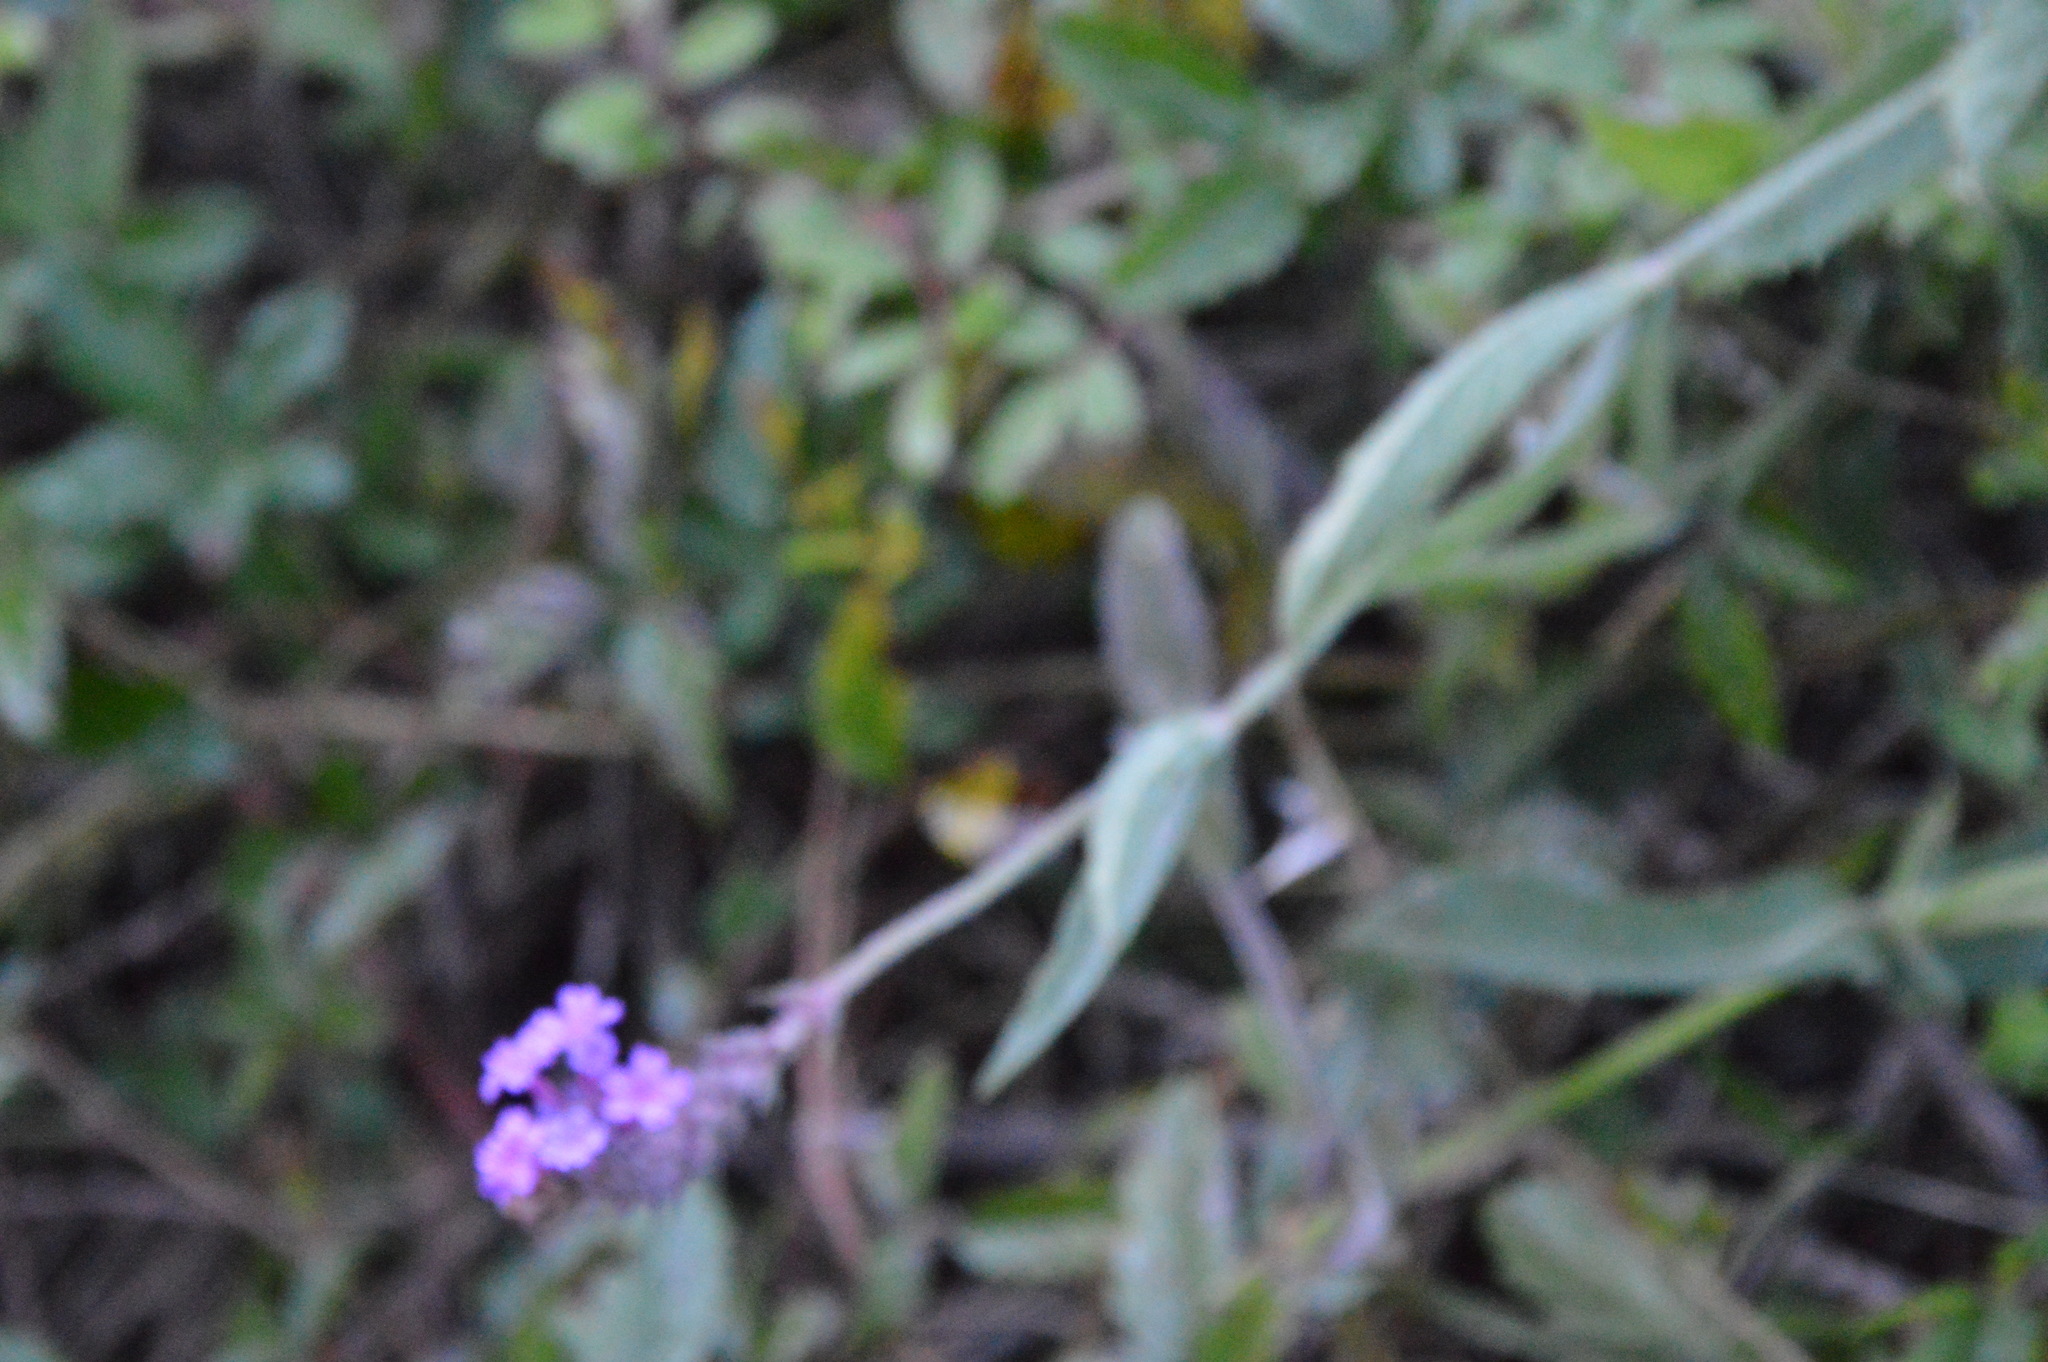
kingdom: Plantae
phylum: Tracheophyta
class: Magnoliopsida
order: Lamiales
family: Verbenaceae
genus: Verbena
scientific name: Verbena rigida
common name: Slender vervain
